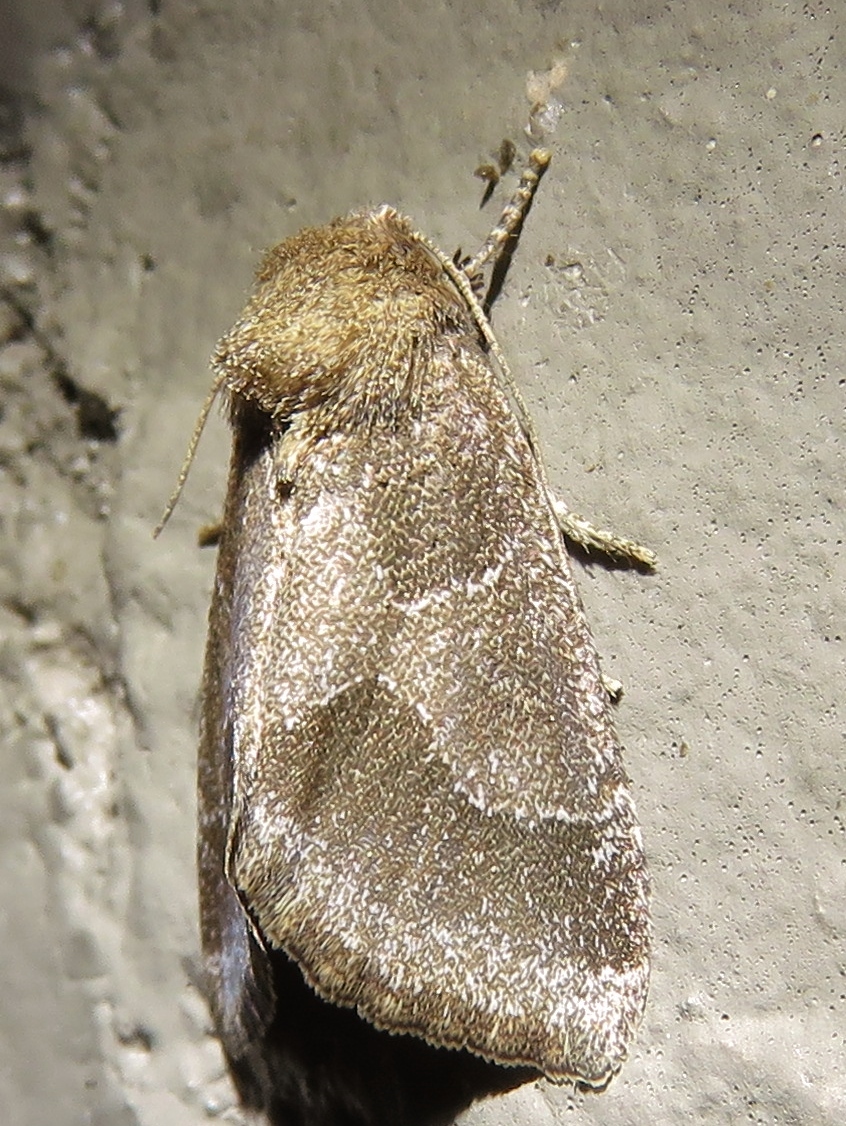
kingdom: Animalia
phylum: Arthropoda
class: Insecta
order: Lepidoptera
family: Noctuidae
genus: Schinia
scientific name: Schinia thoreaui
